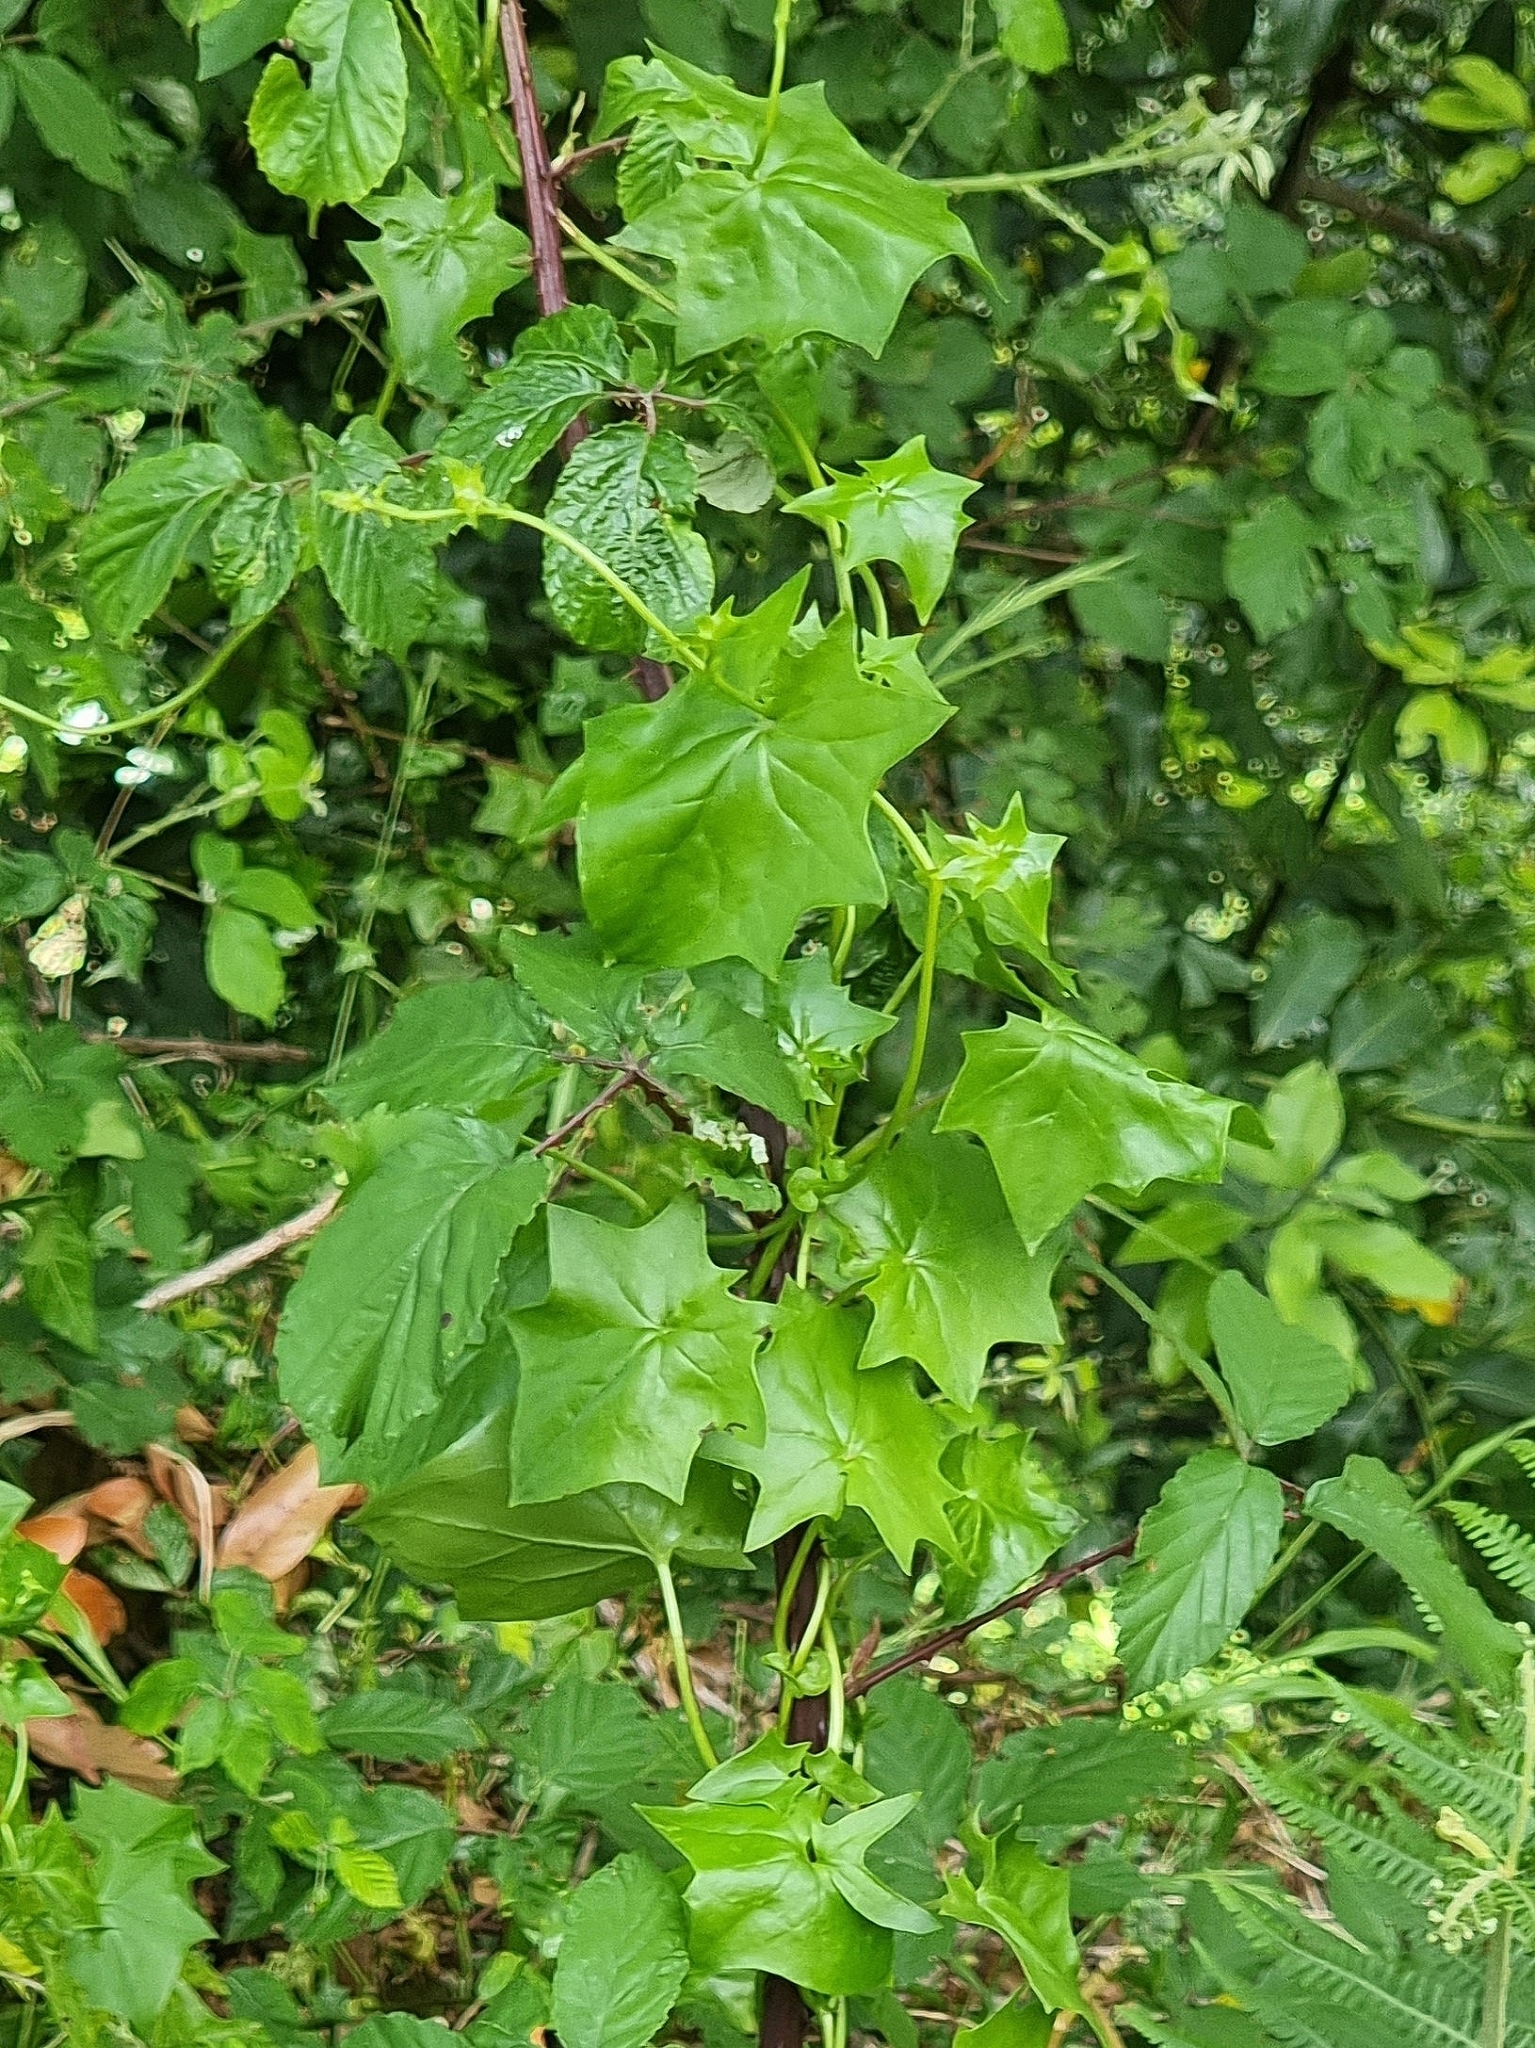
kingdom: Plantae
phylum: Tracheophyta
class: Magnoliopsida
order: Asterales
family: Asteraceae
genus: Delairea
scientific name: Delairea odorata
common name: Cape-ivy
